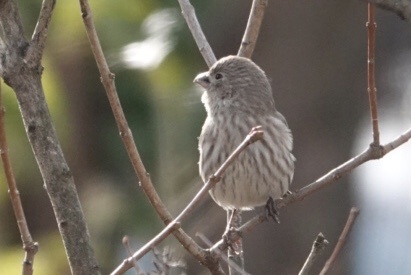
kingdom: Animalia
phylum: Chordata
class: Aves
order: Passeriformes
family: Fringillidae
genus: Haemorhous
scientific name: Haemorhous mexicanus
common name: House finch
